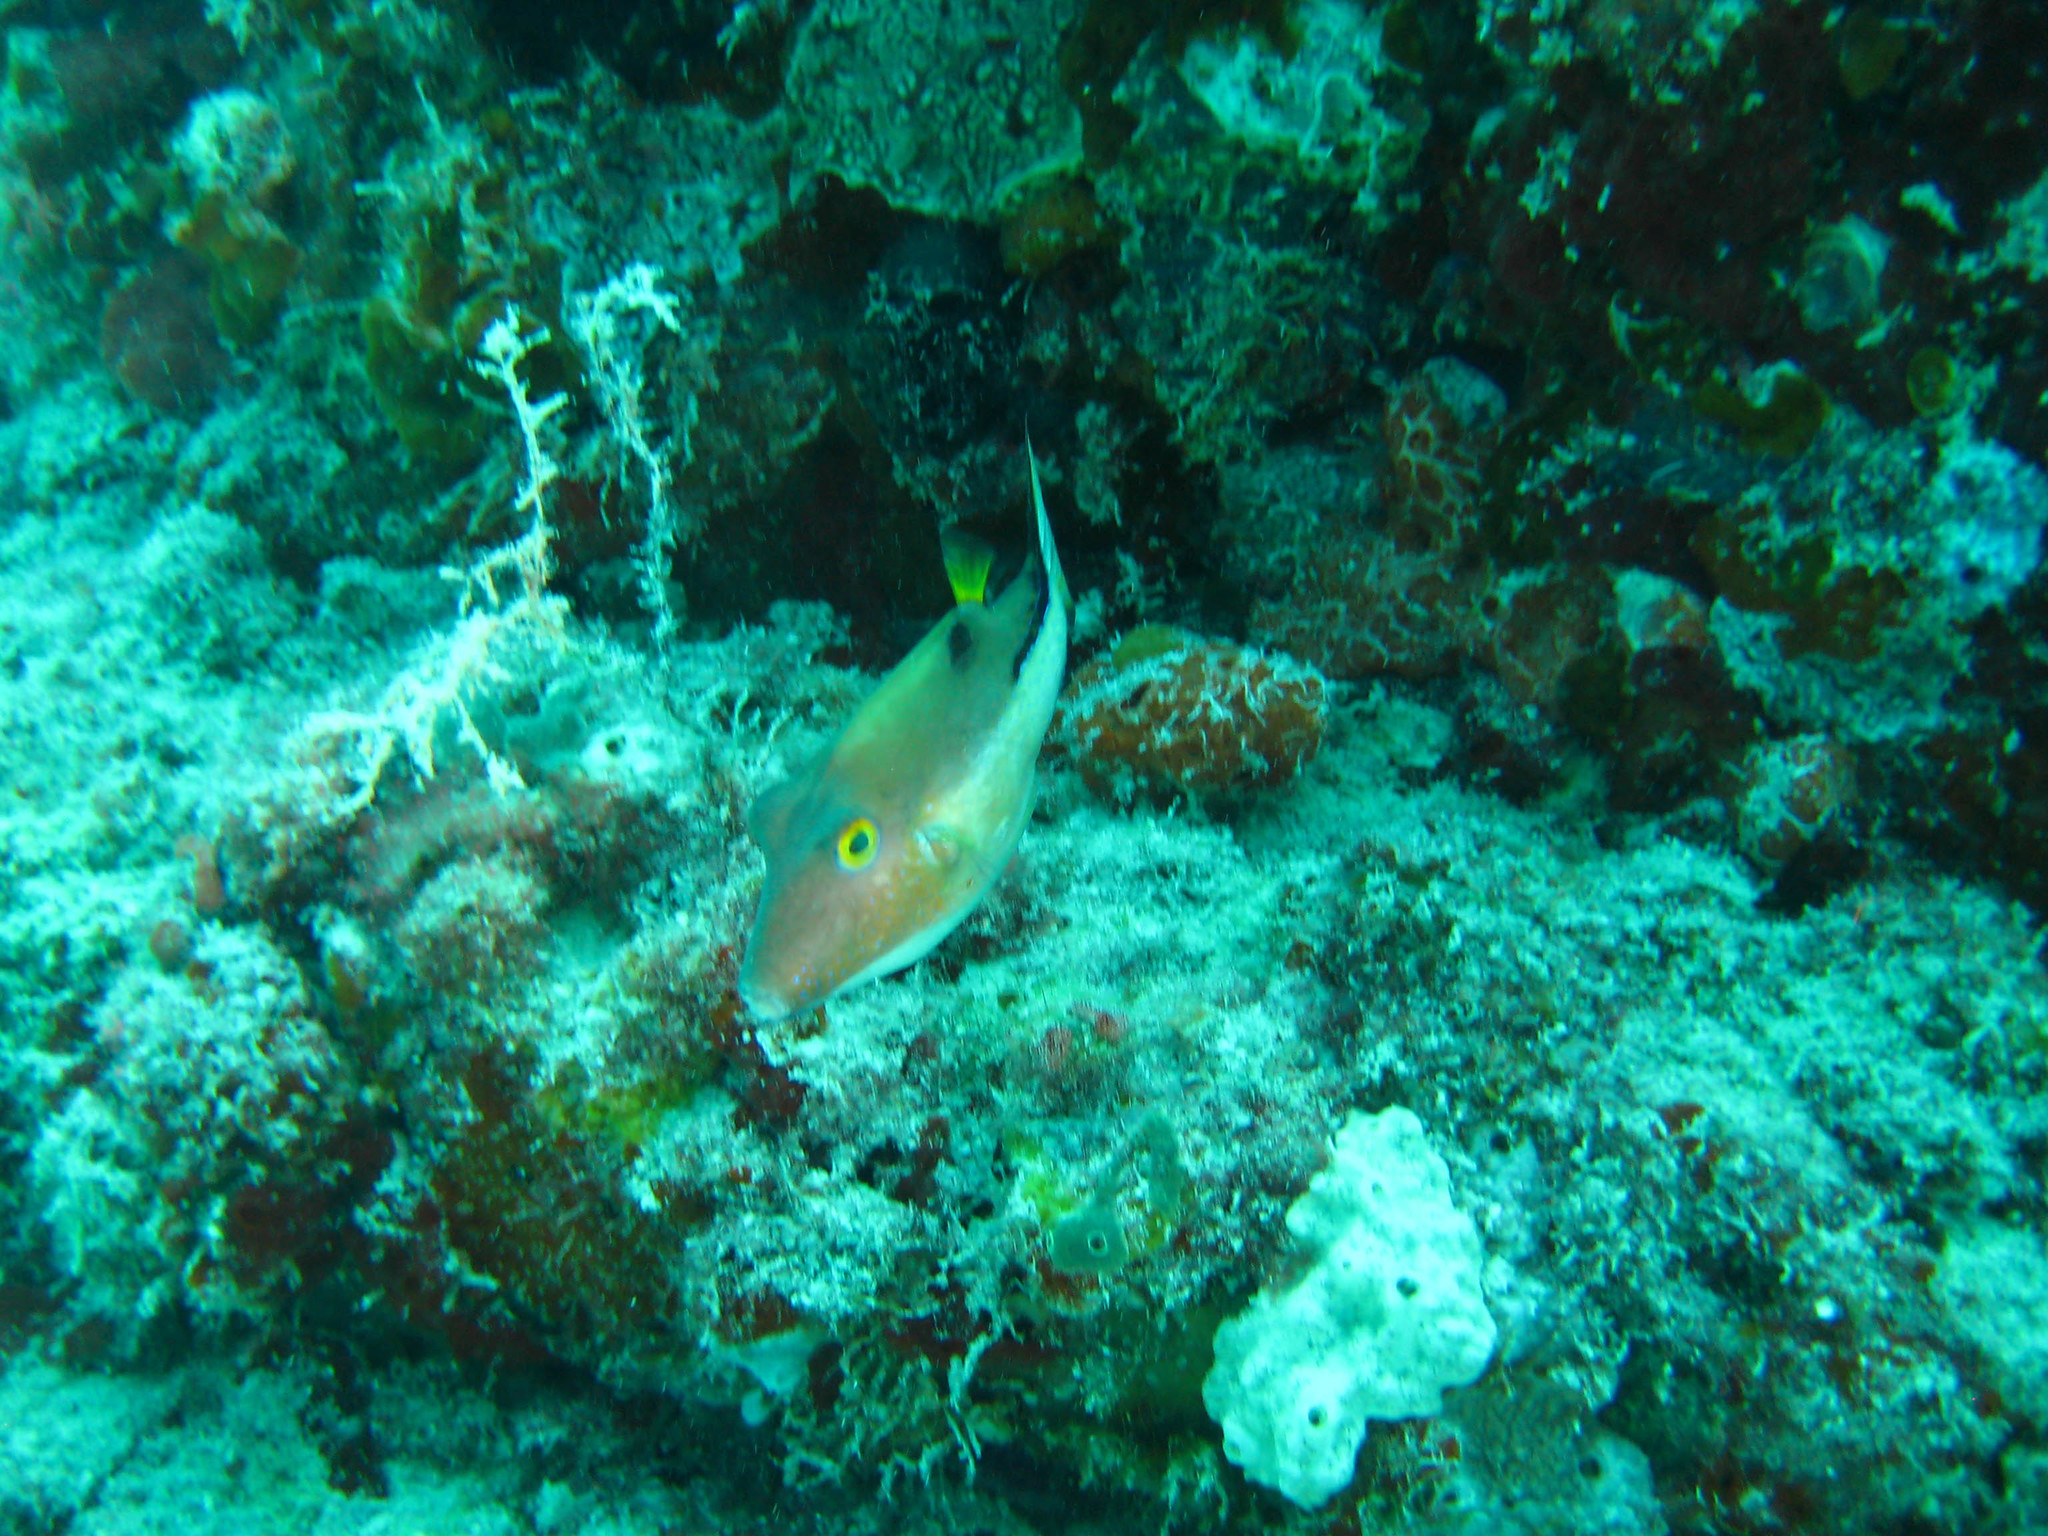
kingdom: Animalia
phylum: Chordata
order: Tetraodontiformes
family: Tetraodontidae
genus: Canthigaster
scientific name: Canthigaster rostrata
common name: Caribbean sharpnose-puffer
